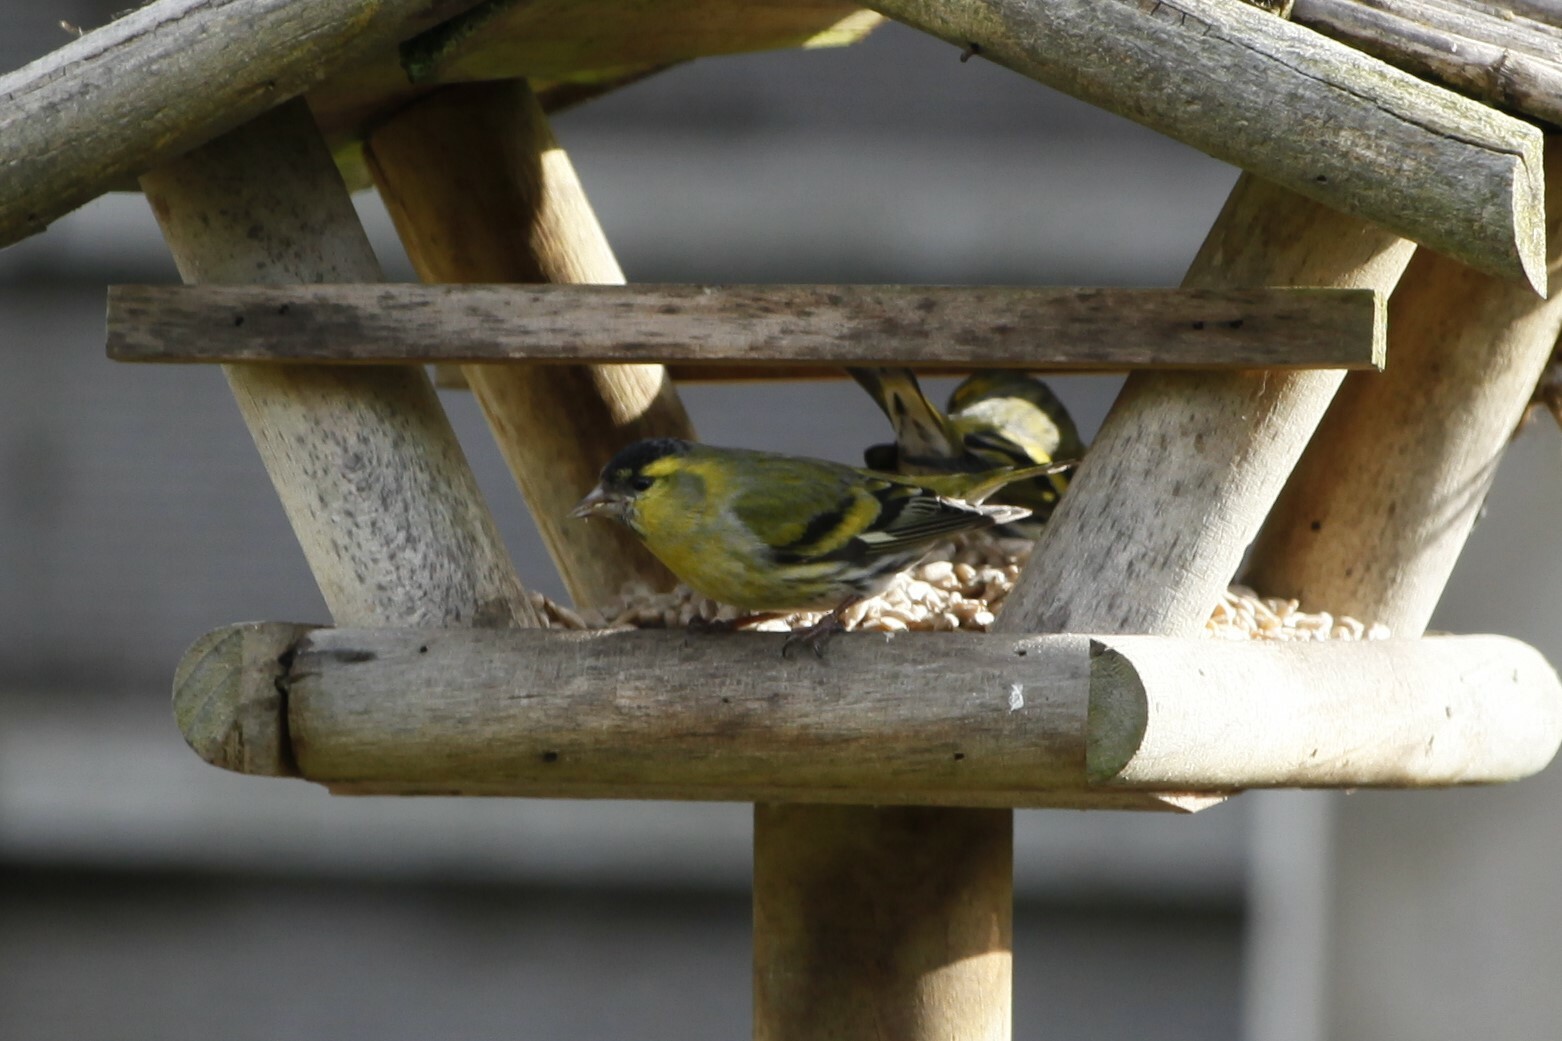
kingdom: Animalia
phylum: Chordata
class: Aves
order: Passeriformes
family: Fringillidae
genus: Spinus
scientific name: Spinus spinus
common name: Eurasian siskin
